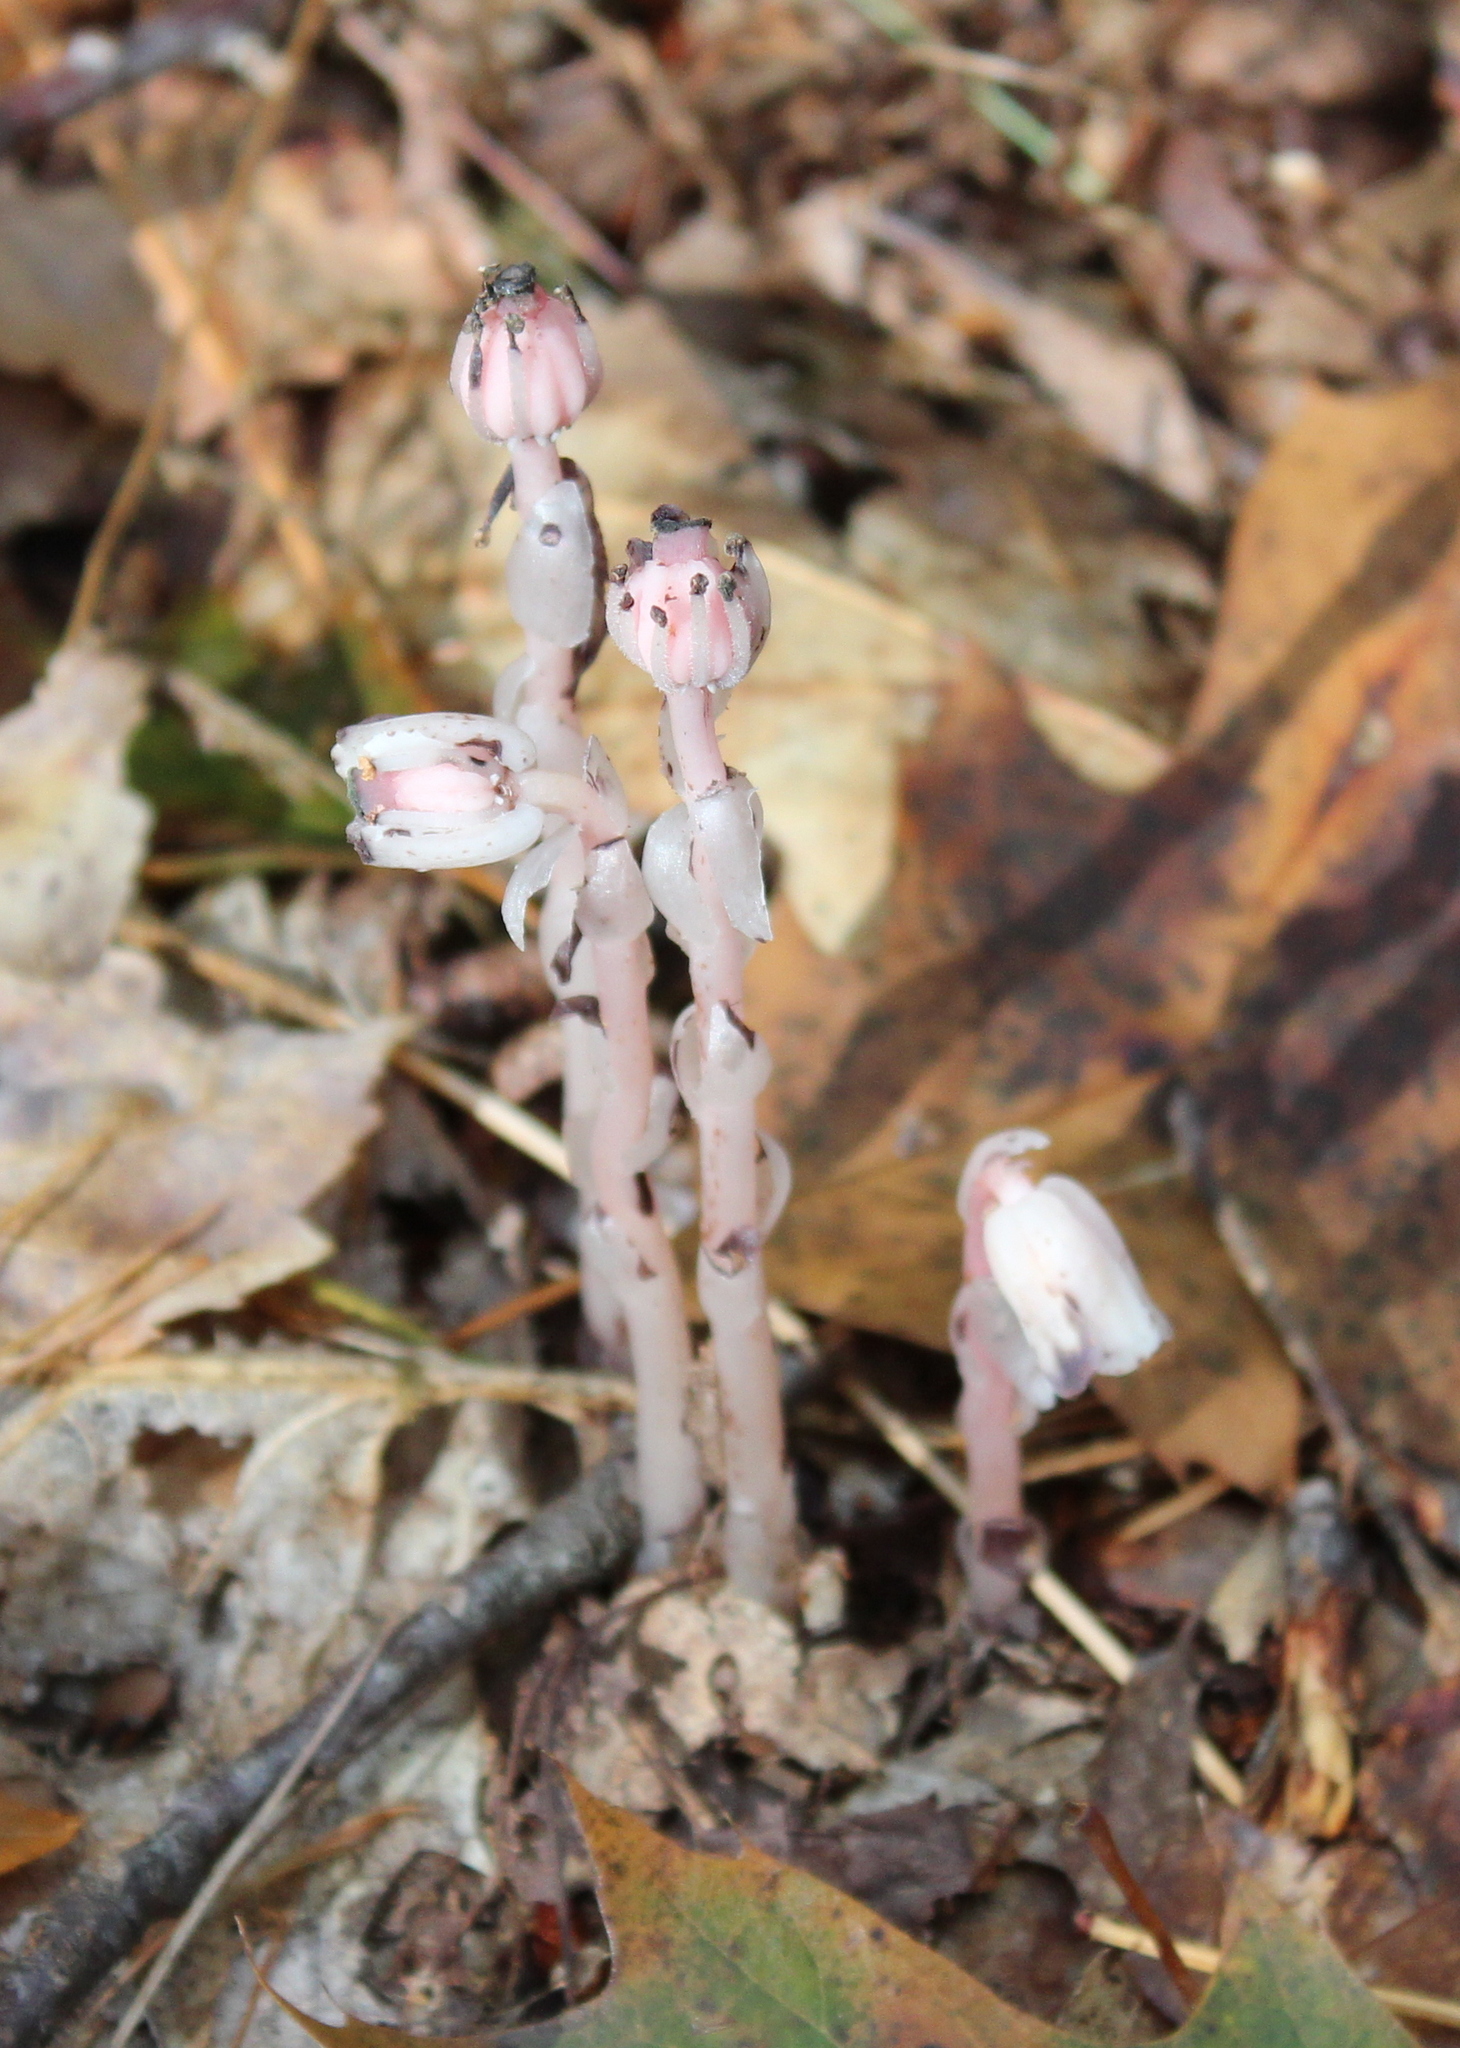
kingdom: Plantae
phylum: Tracheophyta
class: Magnoliopsida
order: Ericales
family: Ericaceae
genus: Monotropa
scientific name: Monotropa uniflora
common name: Convulsion root
